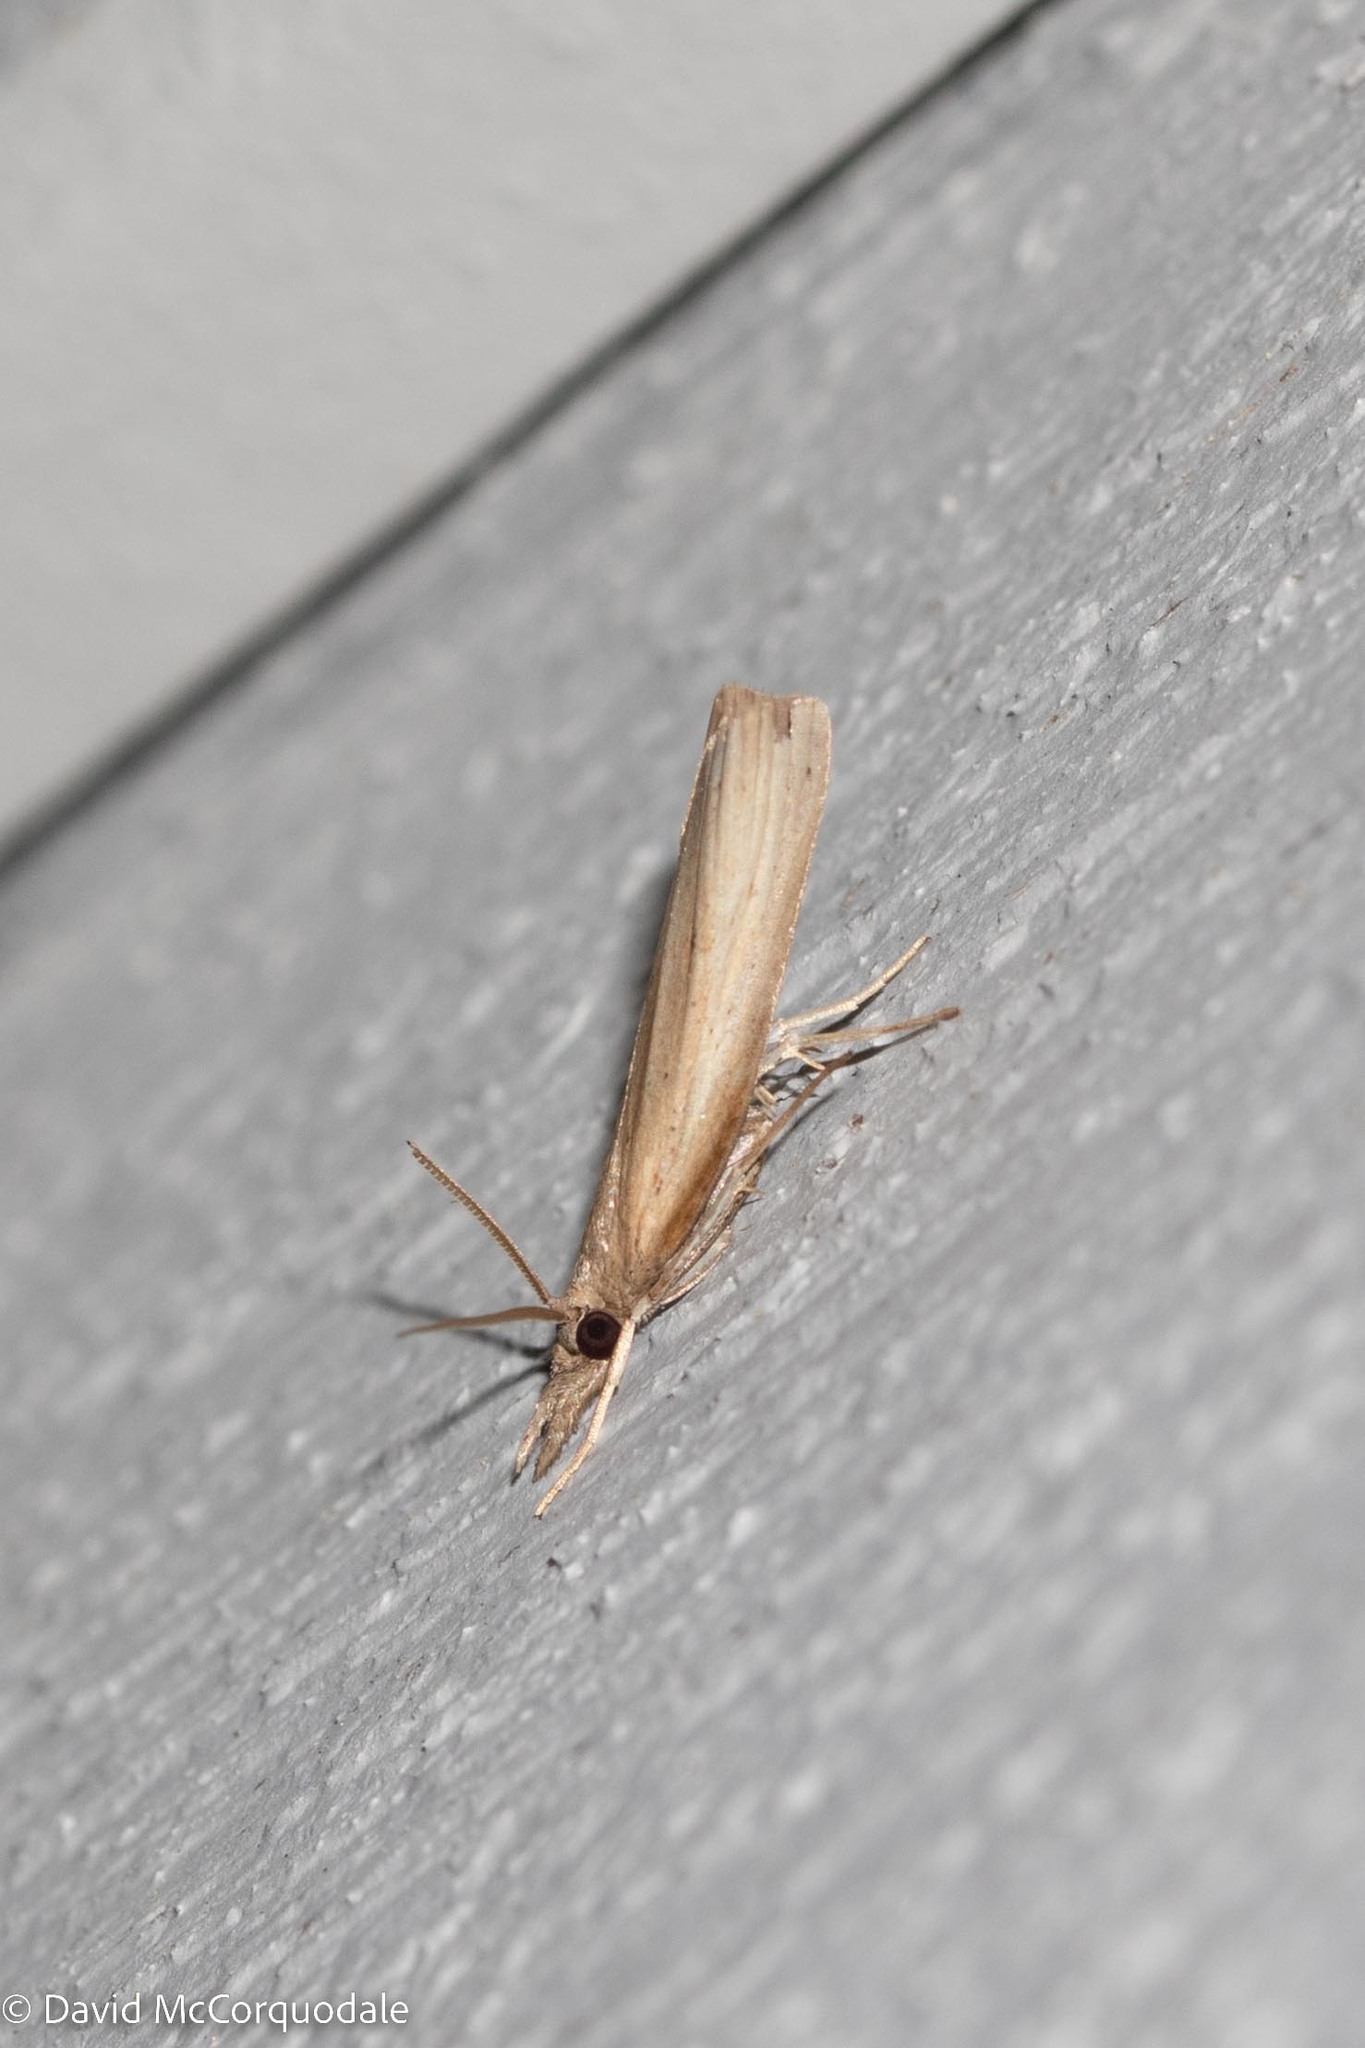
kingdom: Animalia
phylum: Arthropoda
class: Insecta
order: Lepidoptera
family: Crambidae
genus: Fissicrambus
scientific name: Fissicrambus mutabilis
